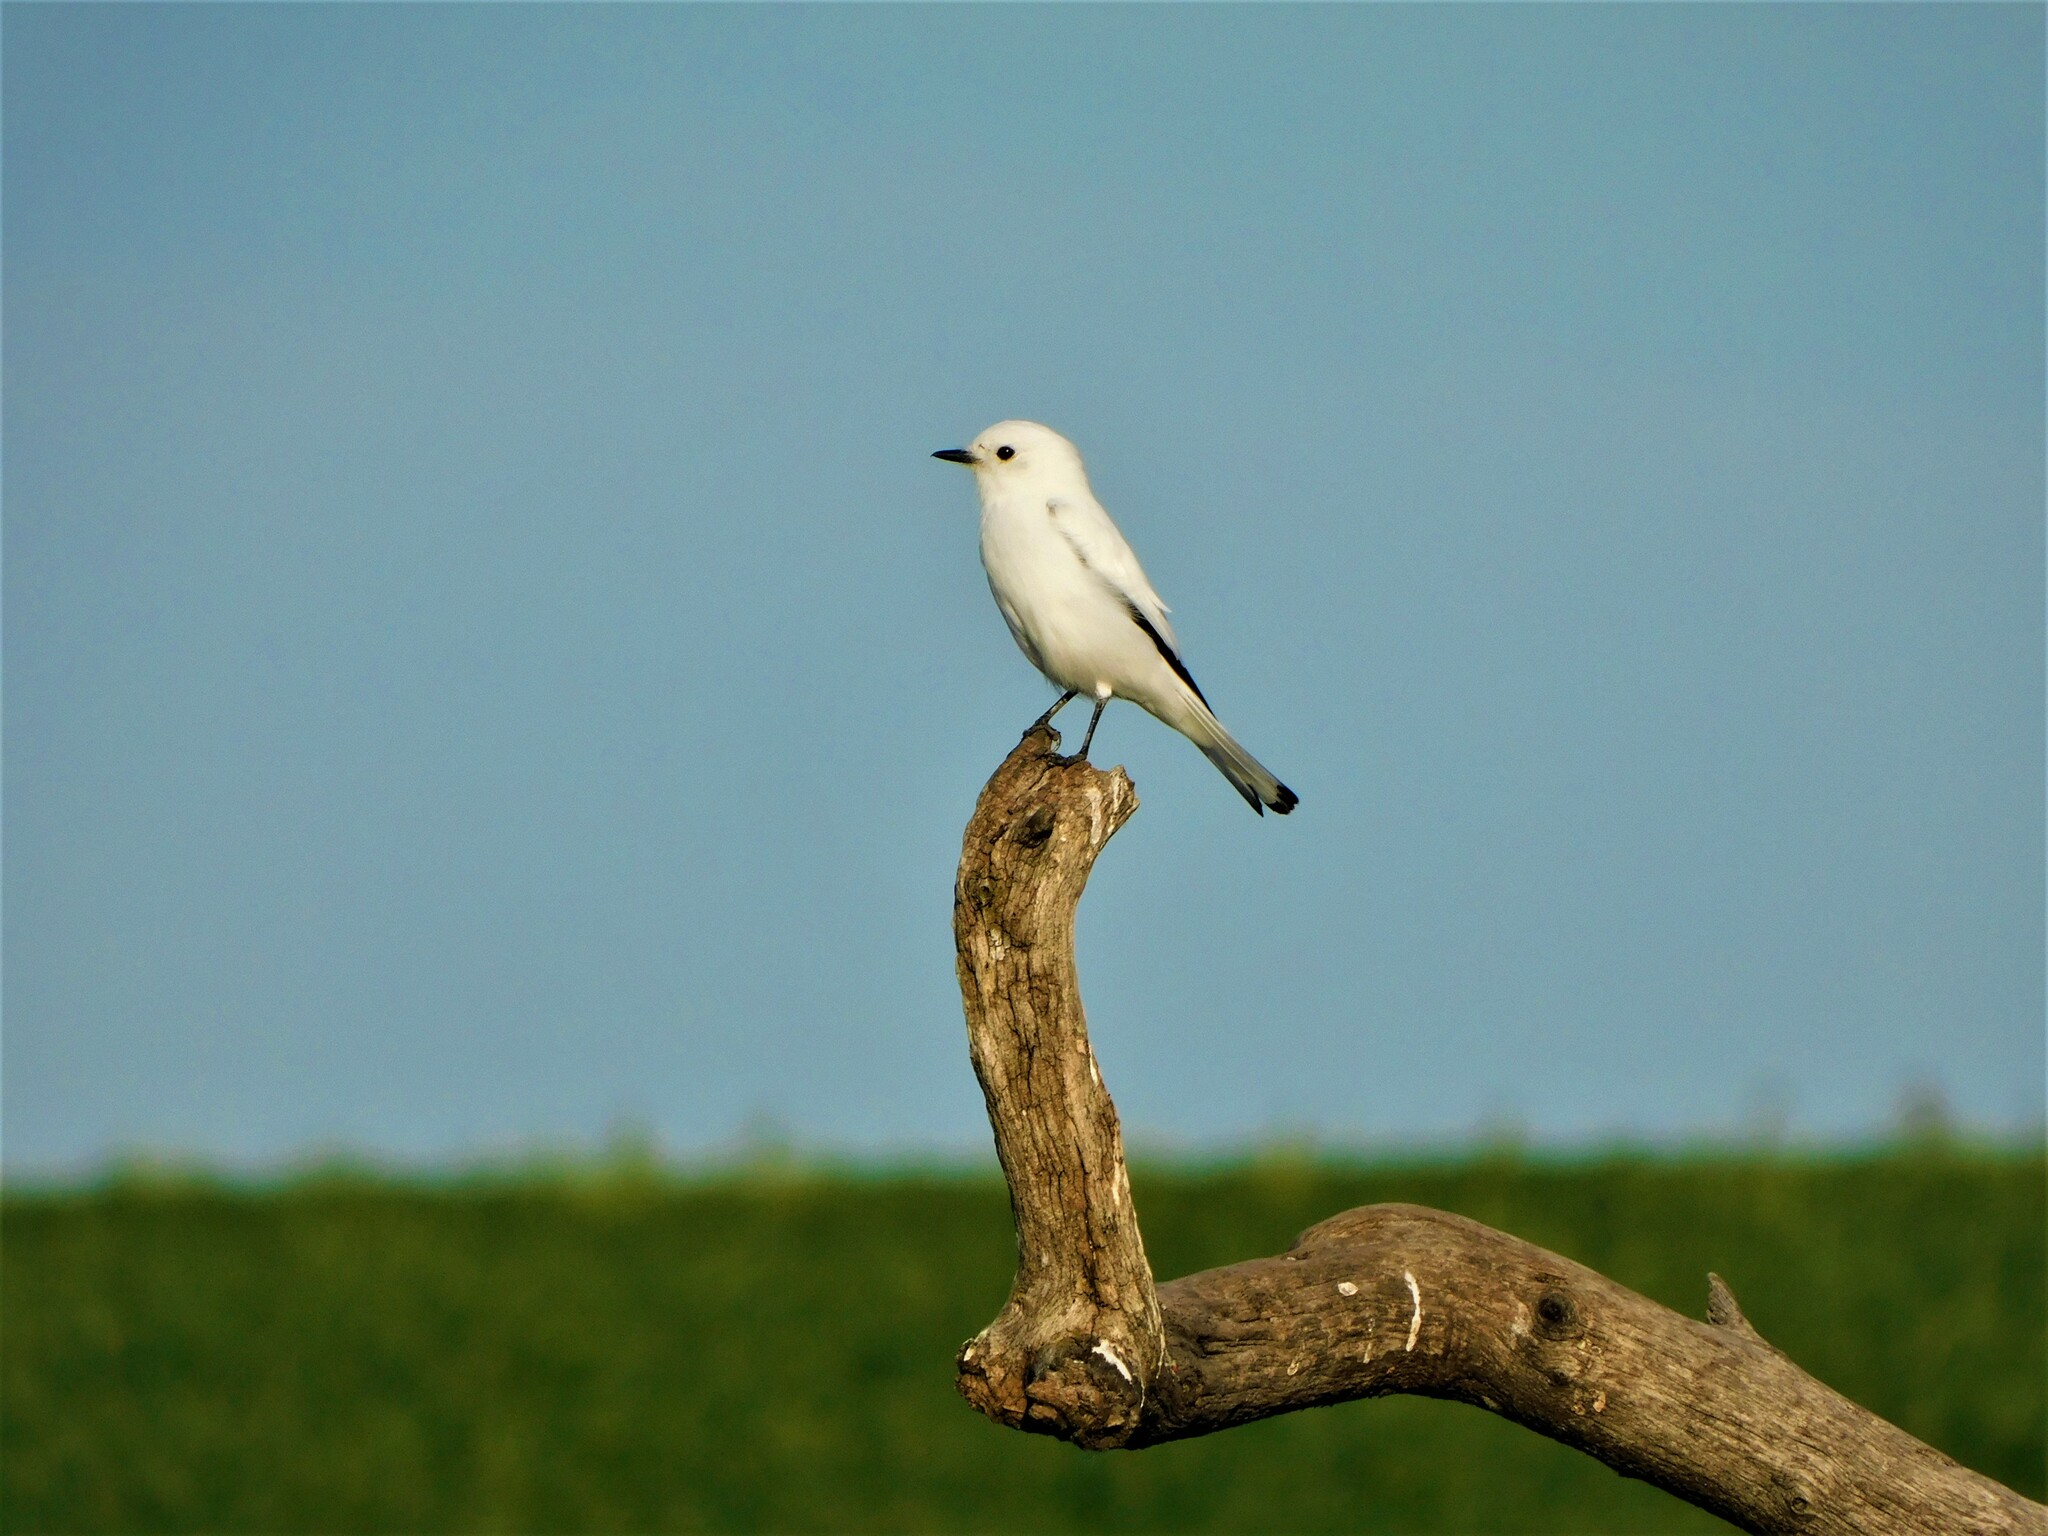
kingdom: Animalia
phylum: Chordata
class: Aves
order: Passeriformes
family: Tyrannidae
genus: Xolmis
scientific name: Xolmis irupero
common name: White monjita
